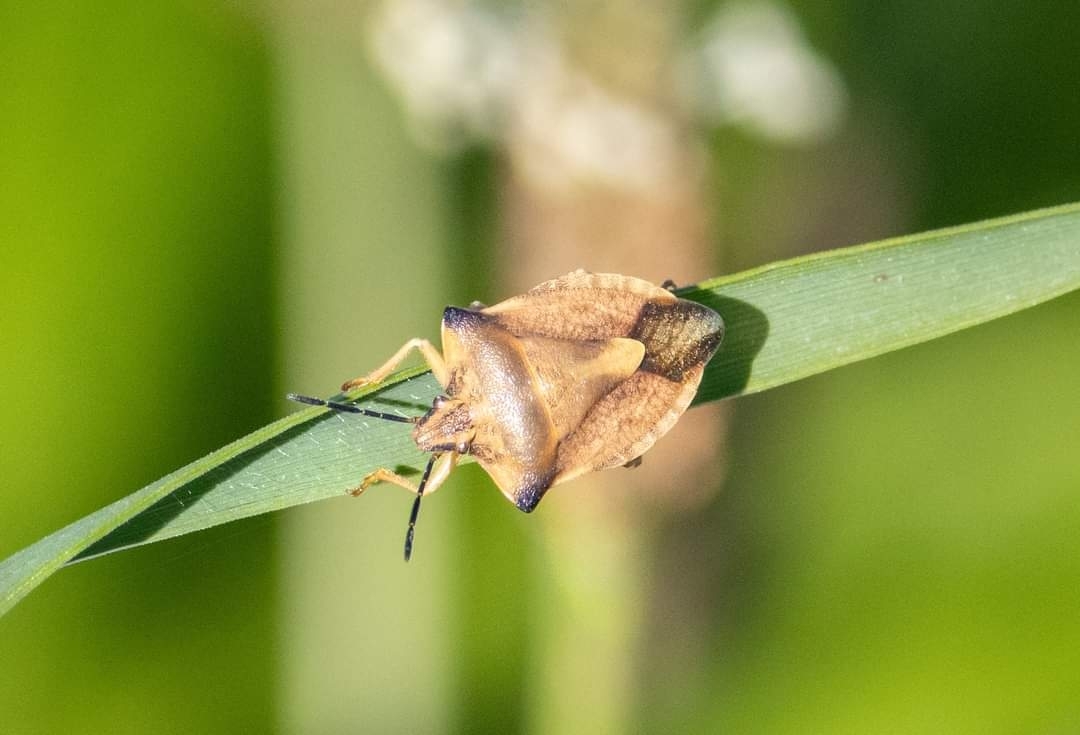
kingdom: Animalia
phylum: Arthropoda
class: Insecta
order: Hemiptera
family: Pentatomidae
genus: Carpocoris
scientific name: Carpocoris fuscispinus
